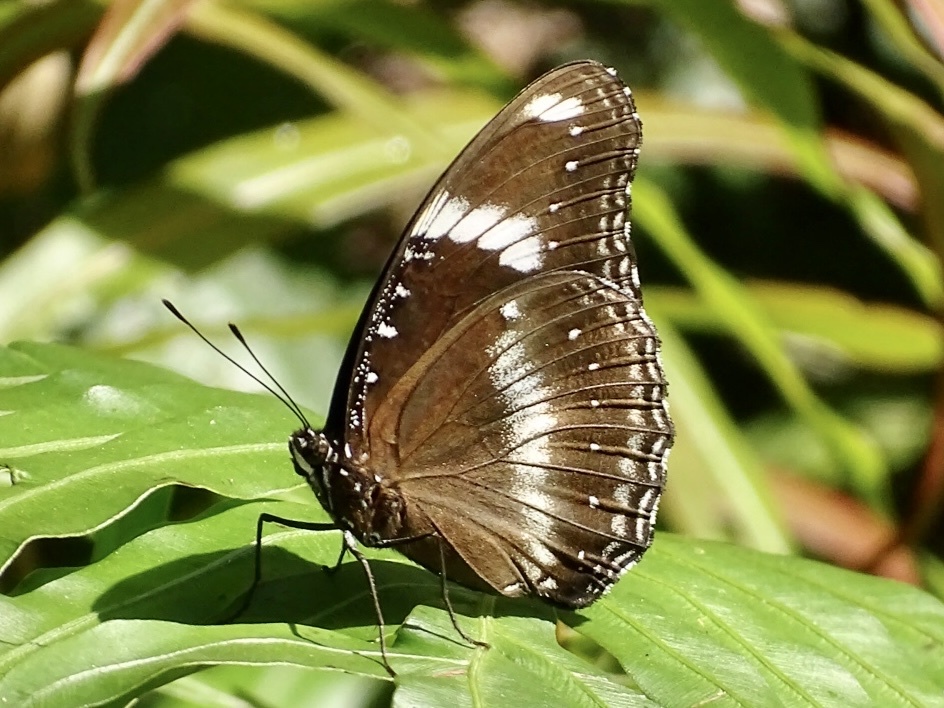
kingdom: Animalia
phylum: Arthropoda
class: Insecta
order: Lepidoptera
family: Nymphalidae
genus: Hypolimnas
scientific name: Hypolimnas bolina
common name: Great eggfly
